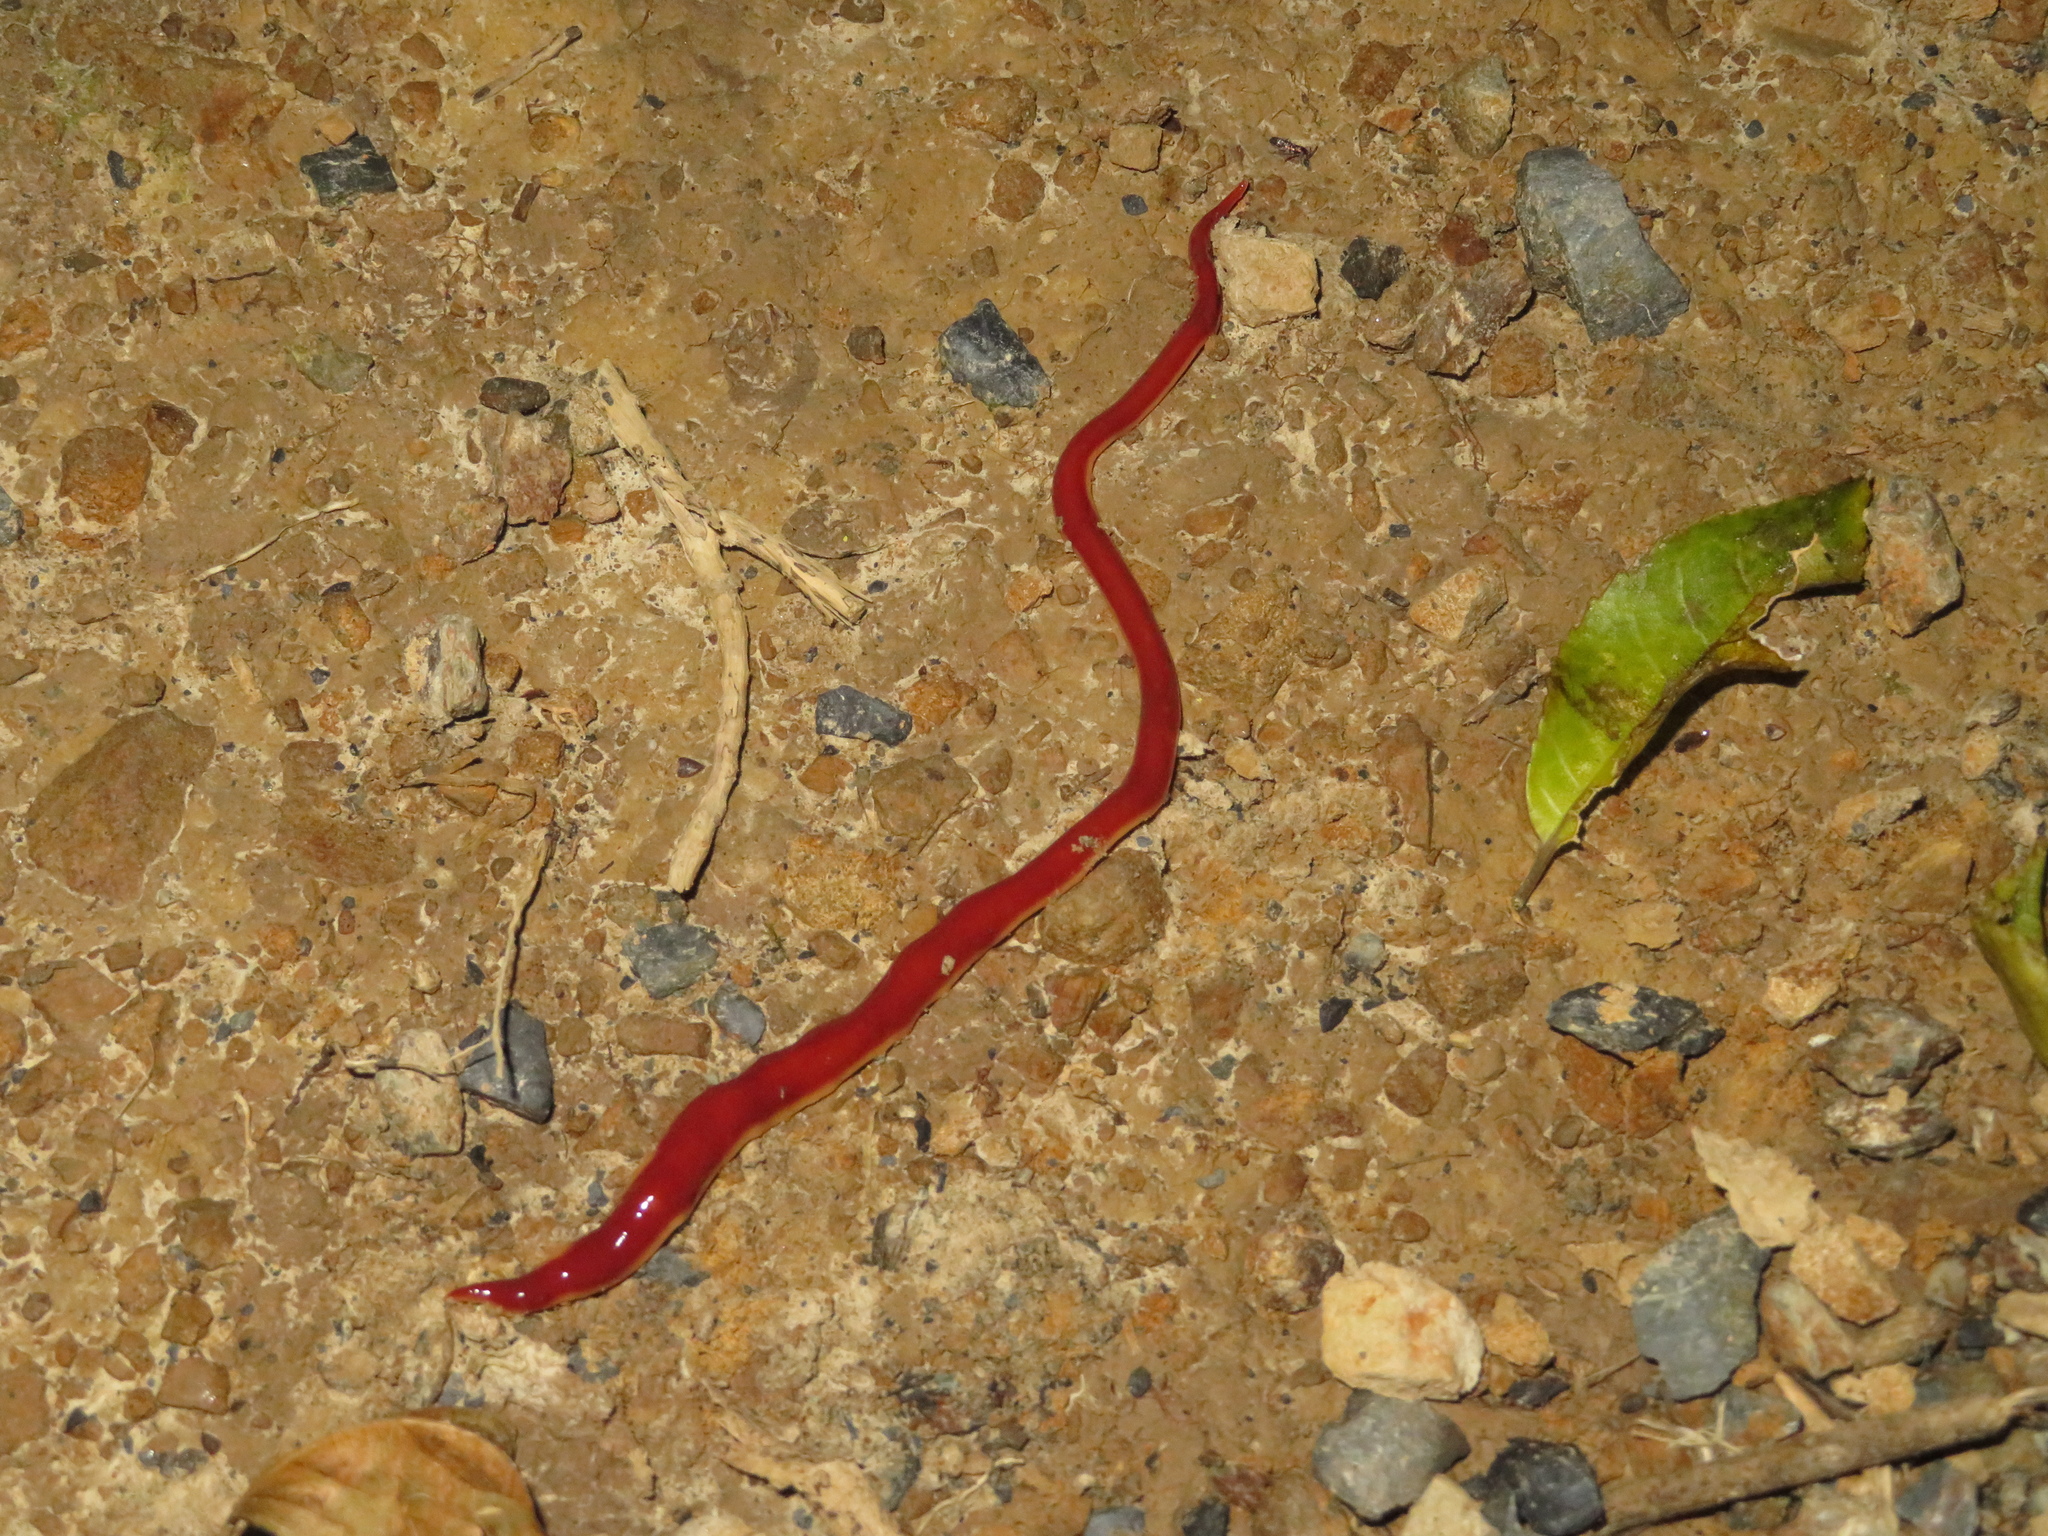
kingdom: Animalia
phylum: Platyhelminthes
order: Tricladida
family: Geoplanidae
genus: Arthurdendyus
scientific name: Arthurdendyus testaceus
